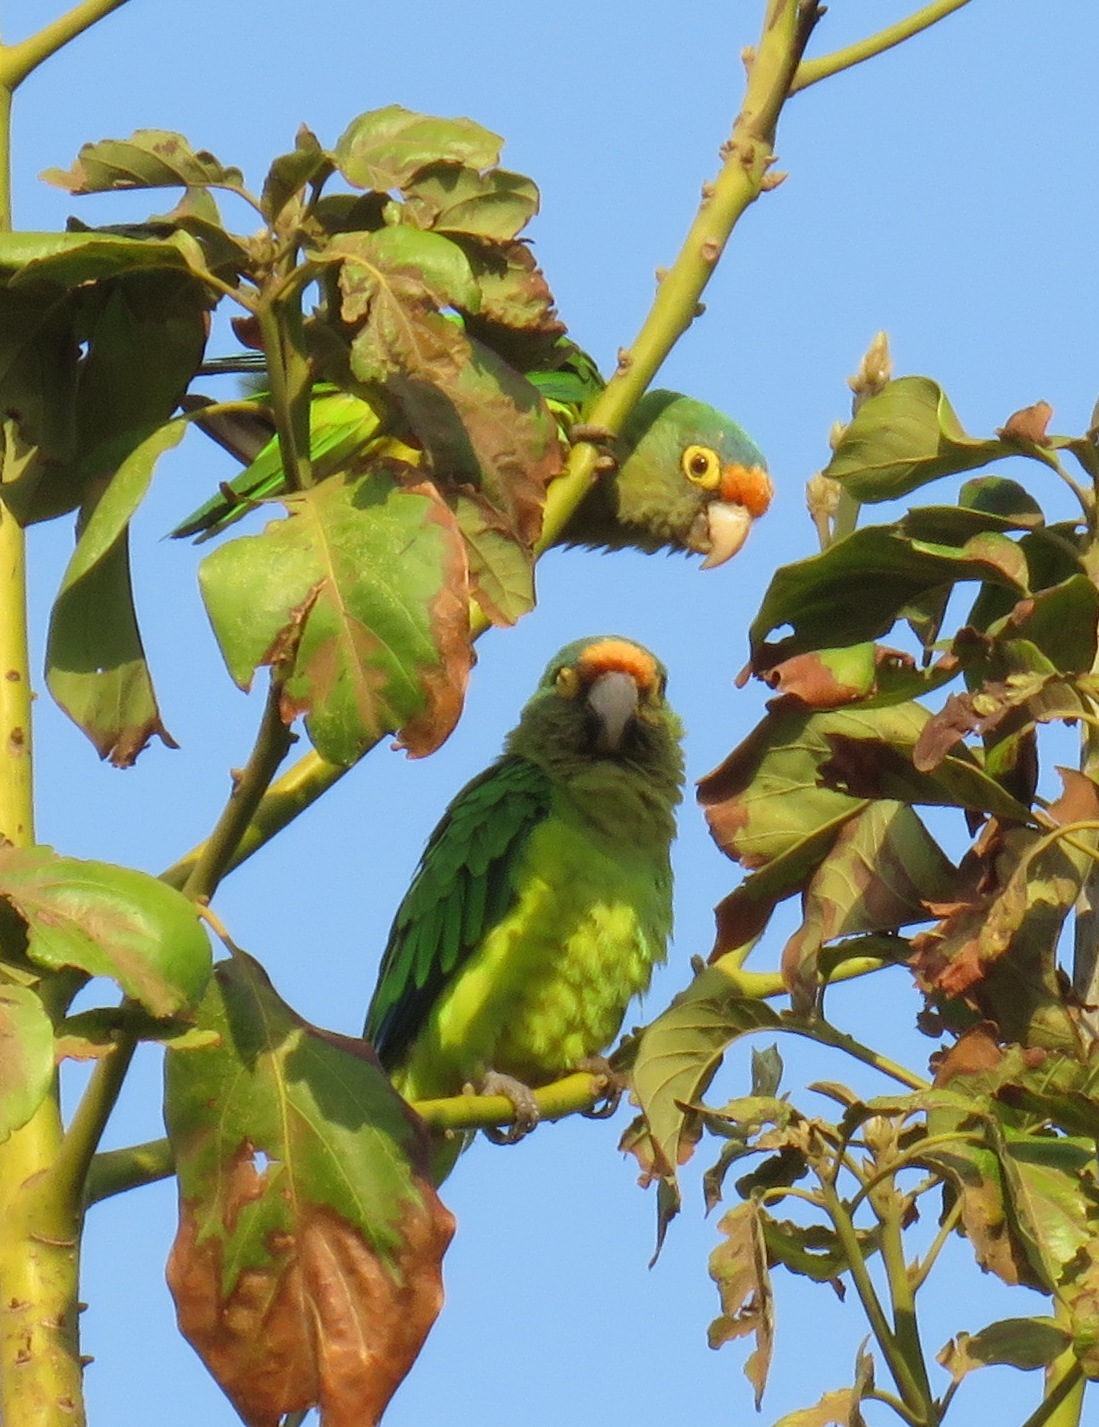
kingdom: Animalia
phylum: Chordata
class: Aves
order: Psittaciformes
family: Psittacidae
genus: Aratinga
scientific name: Aratinga canicularis
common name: Orange-fronted parakeet
